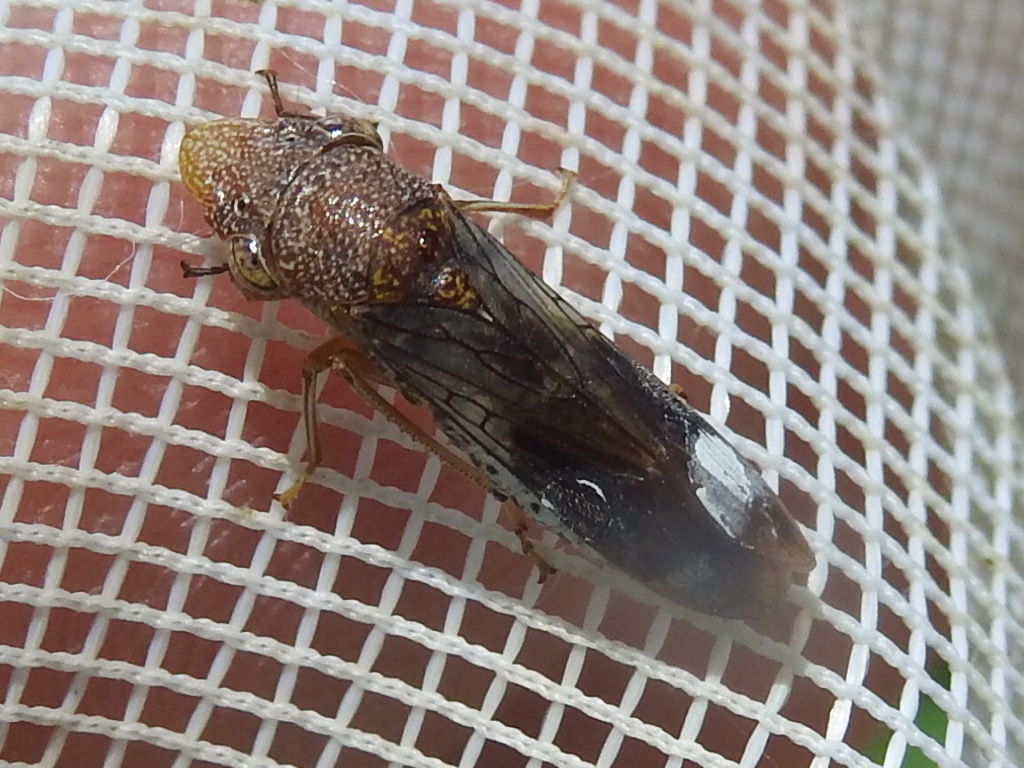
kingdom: Animalia
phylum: Arthropoda
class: Insecta
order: Hemiptera
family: Cicadellidae
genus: Homalodisca
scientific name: Homalodisca vitripennis
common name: Glassy-winged sharpshooter
